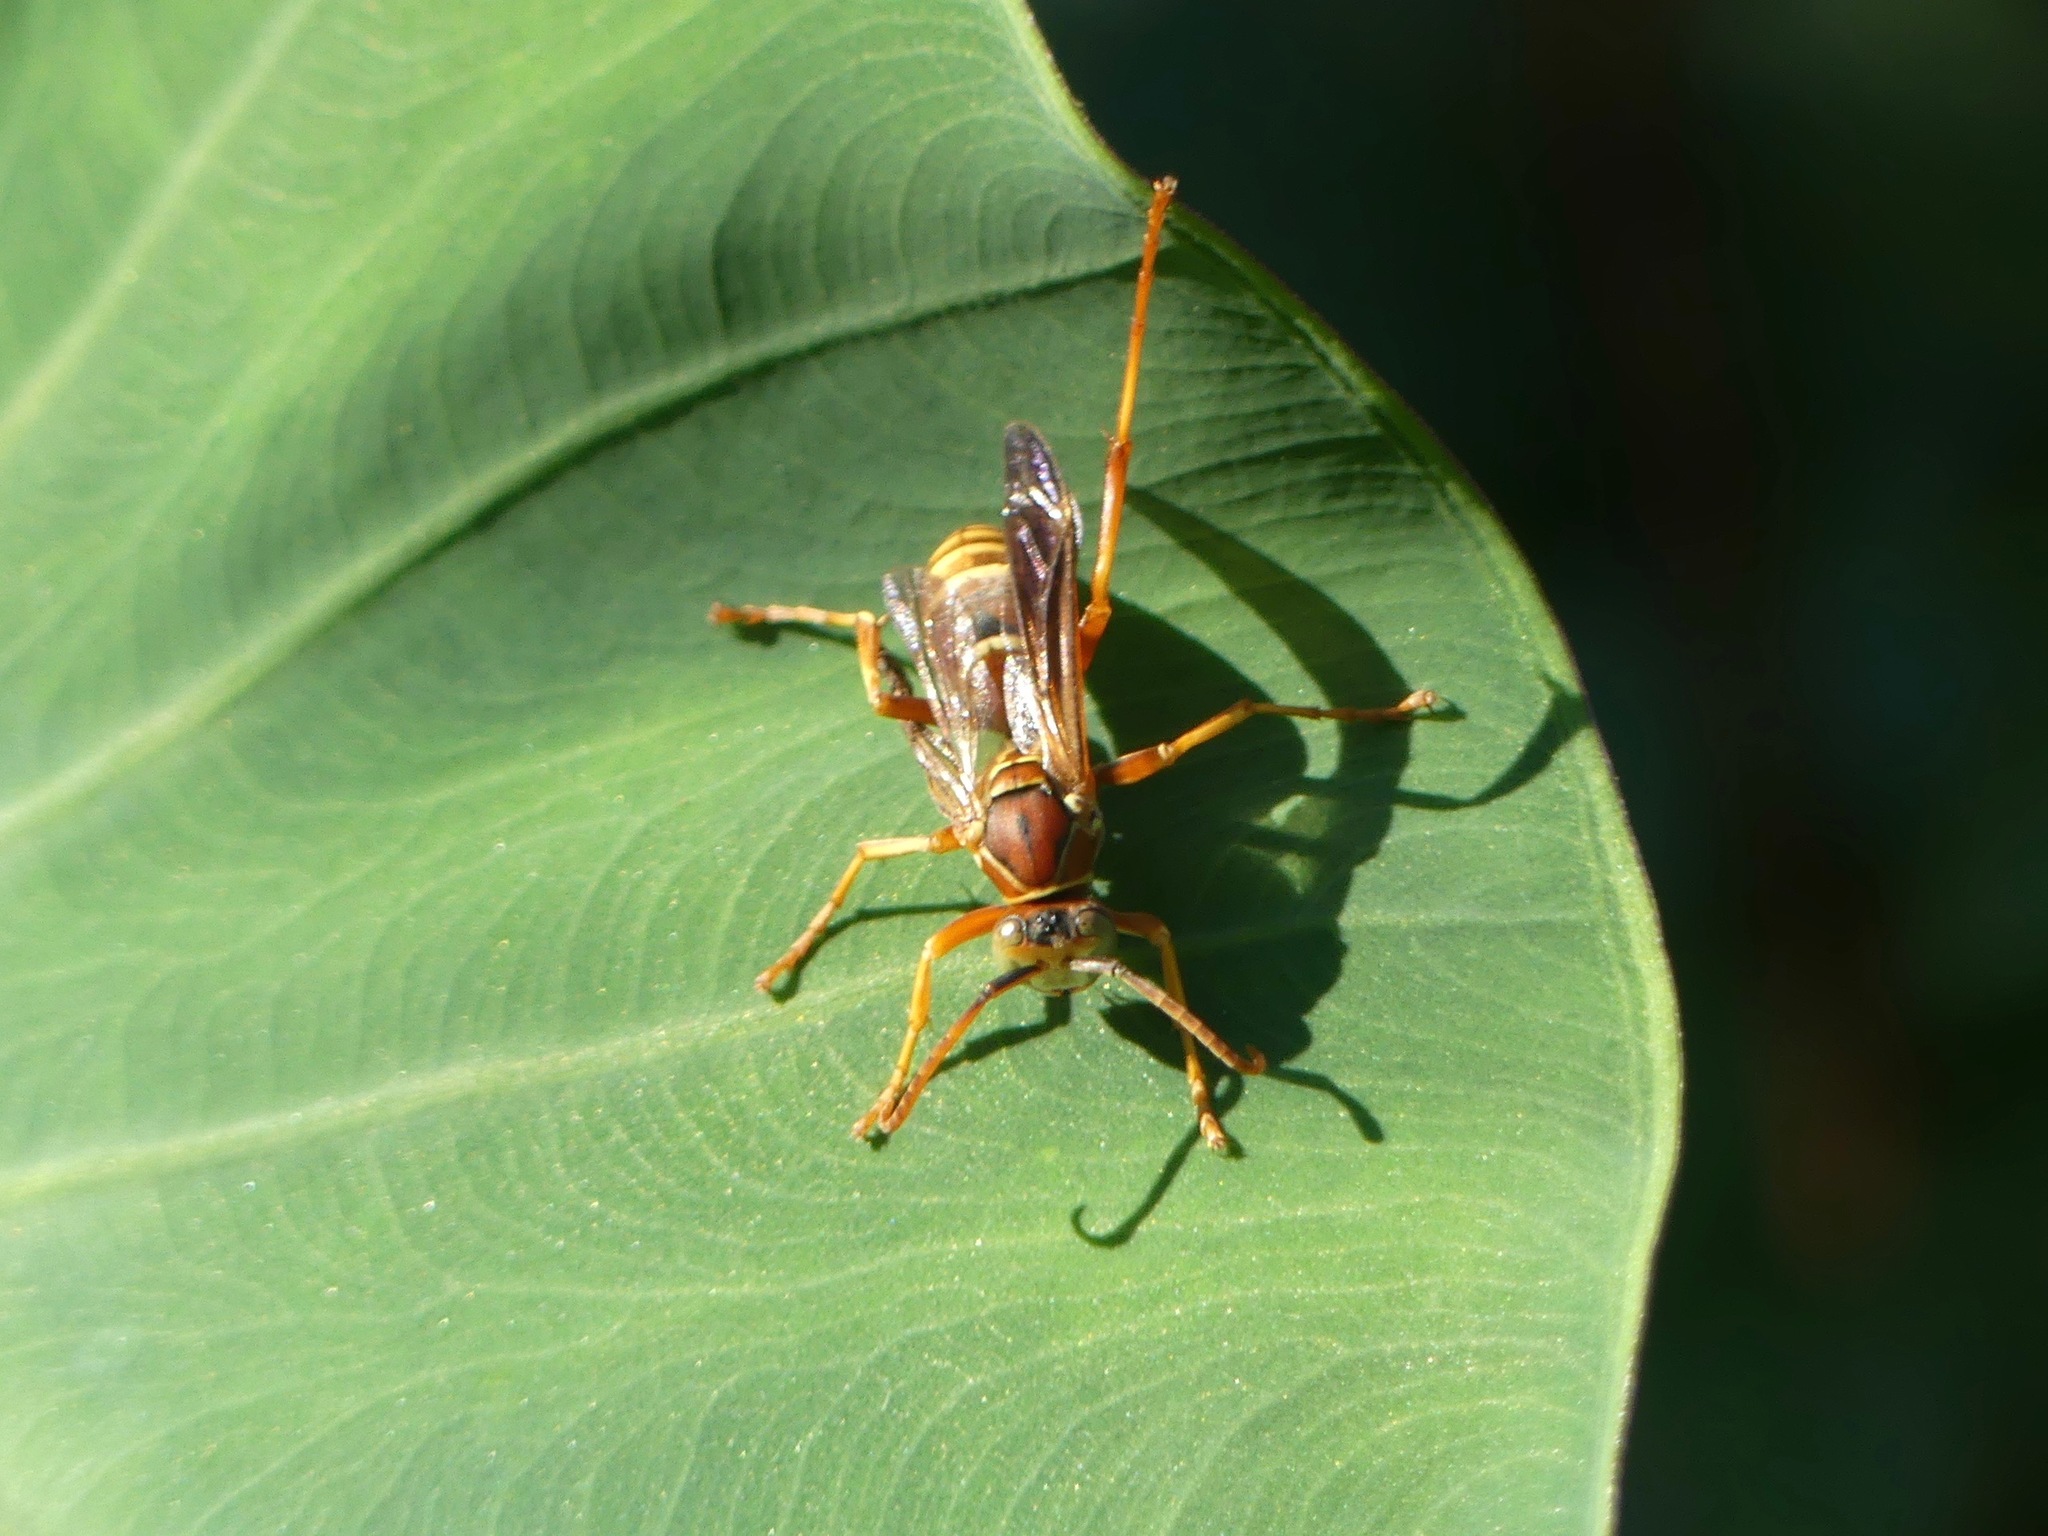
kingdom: Animalia
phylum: Arthropoda
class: Insecta
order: Hymenoptera
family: Eumenidae
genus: Polistes
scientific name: Polistes bellicosus
